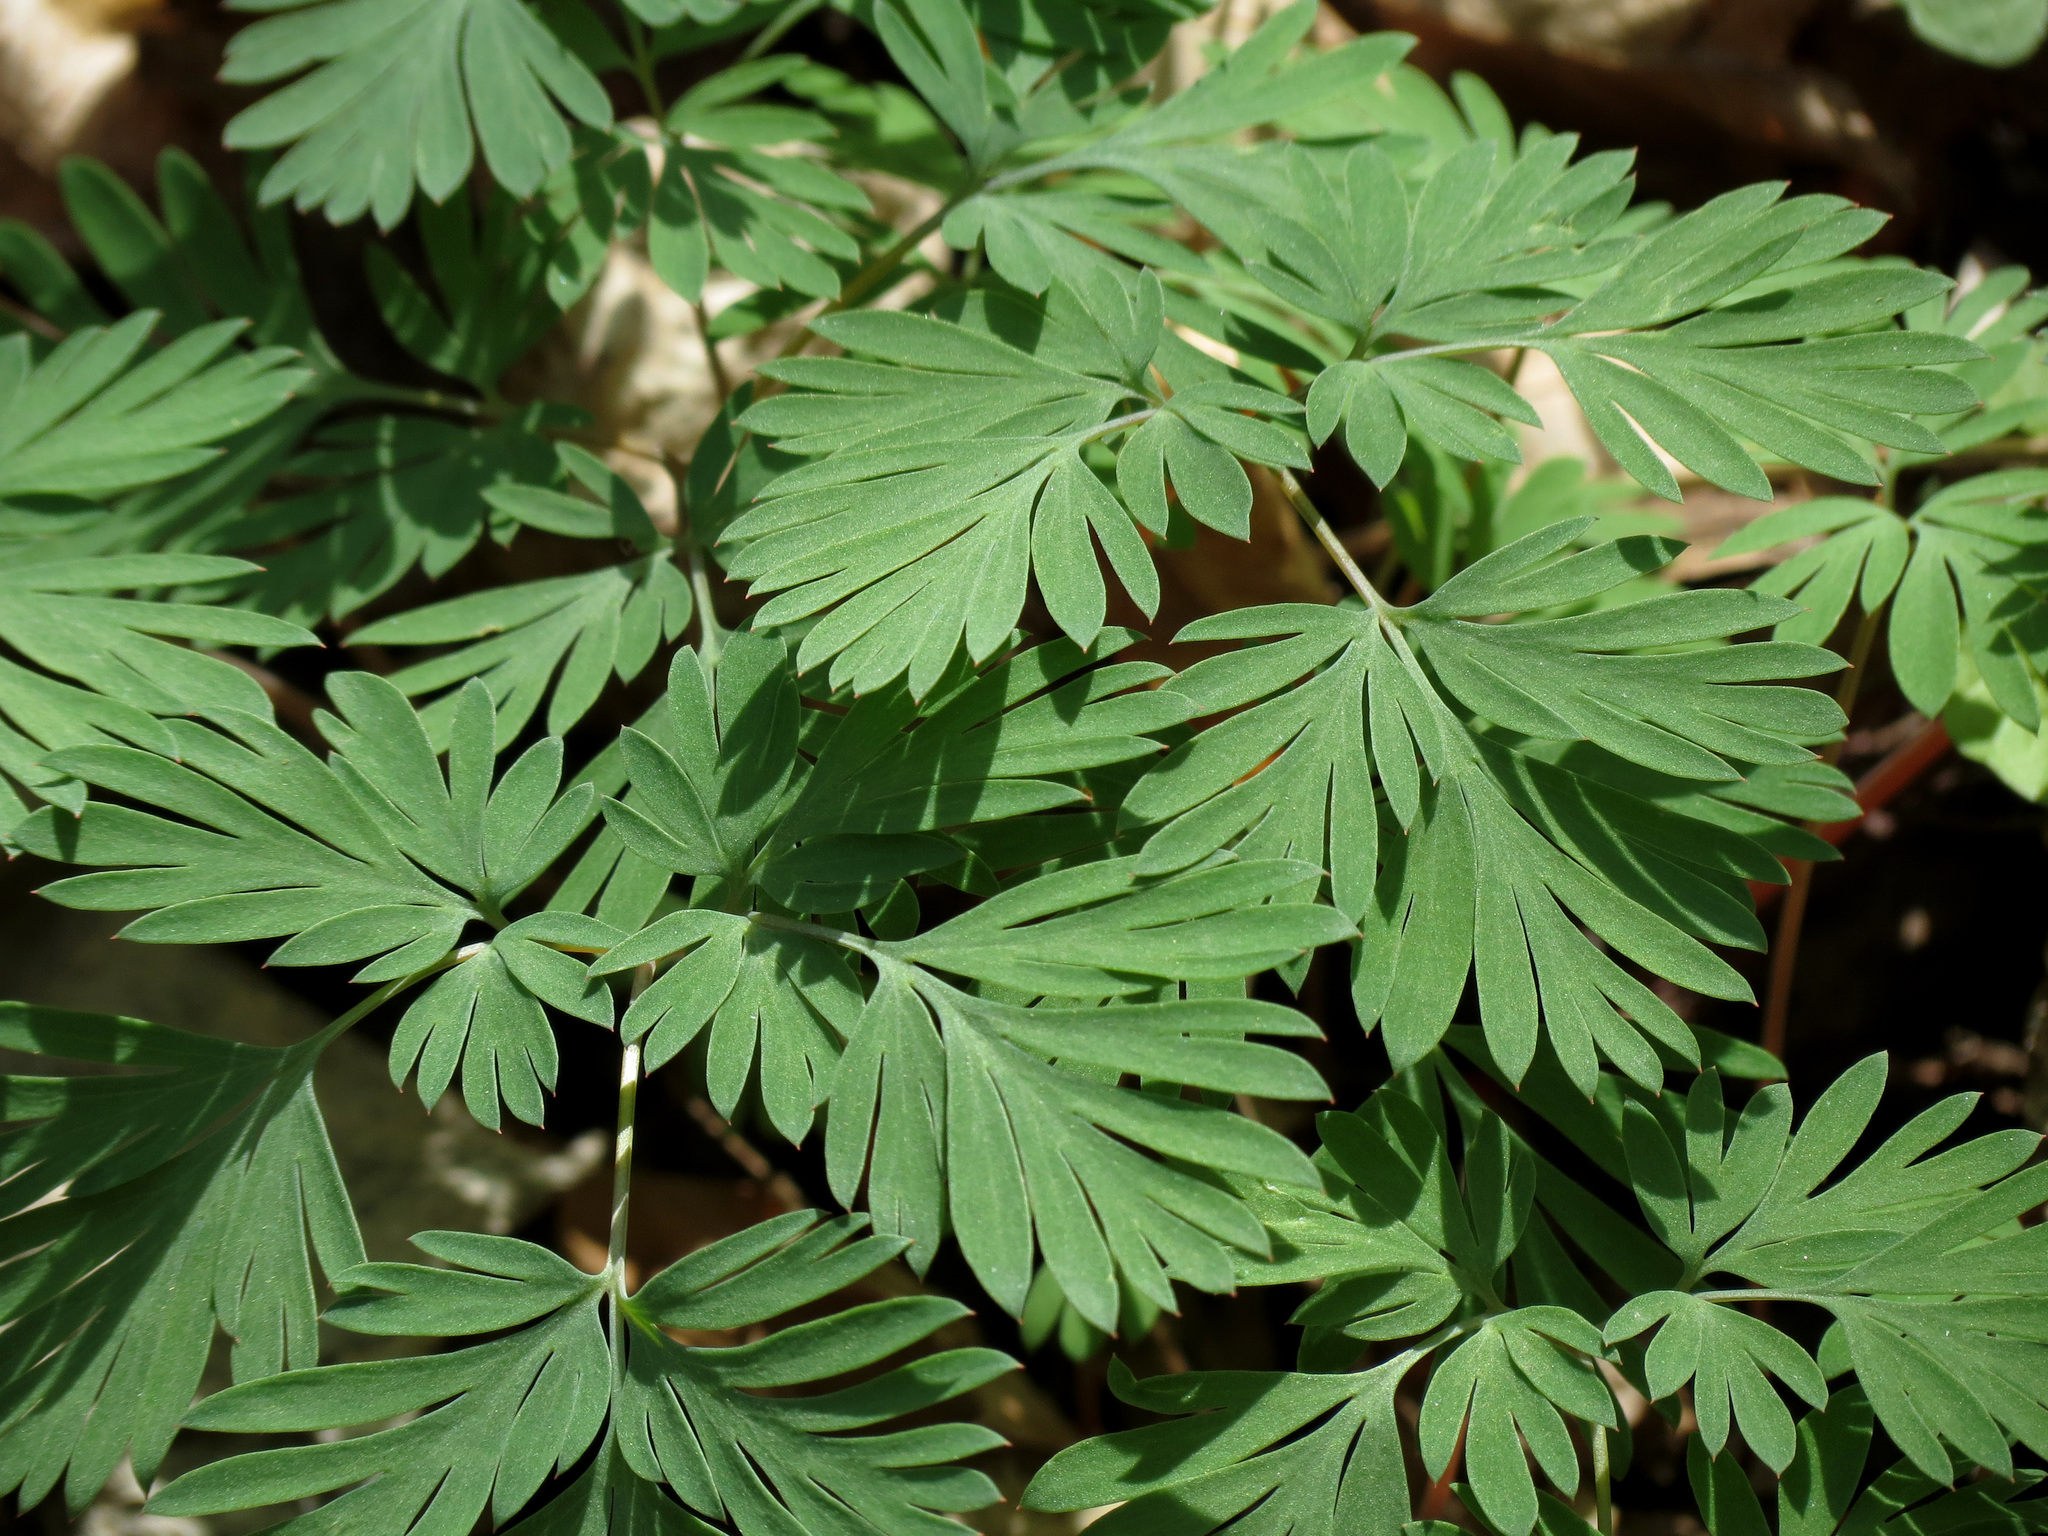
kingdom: Plantae
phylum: Tracheophyta
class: Magnoliopsida
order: Ranunculales
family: Papaveraceae
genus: Dicentra
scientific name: Dicentra cucullaria
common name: Dutchman's breeches
